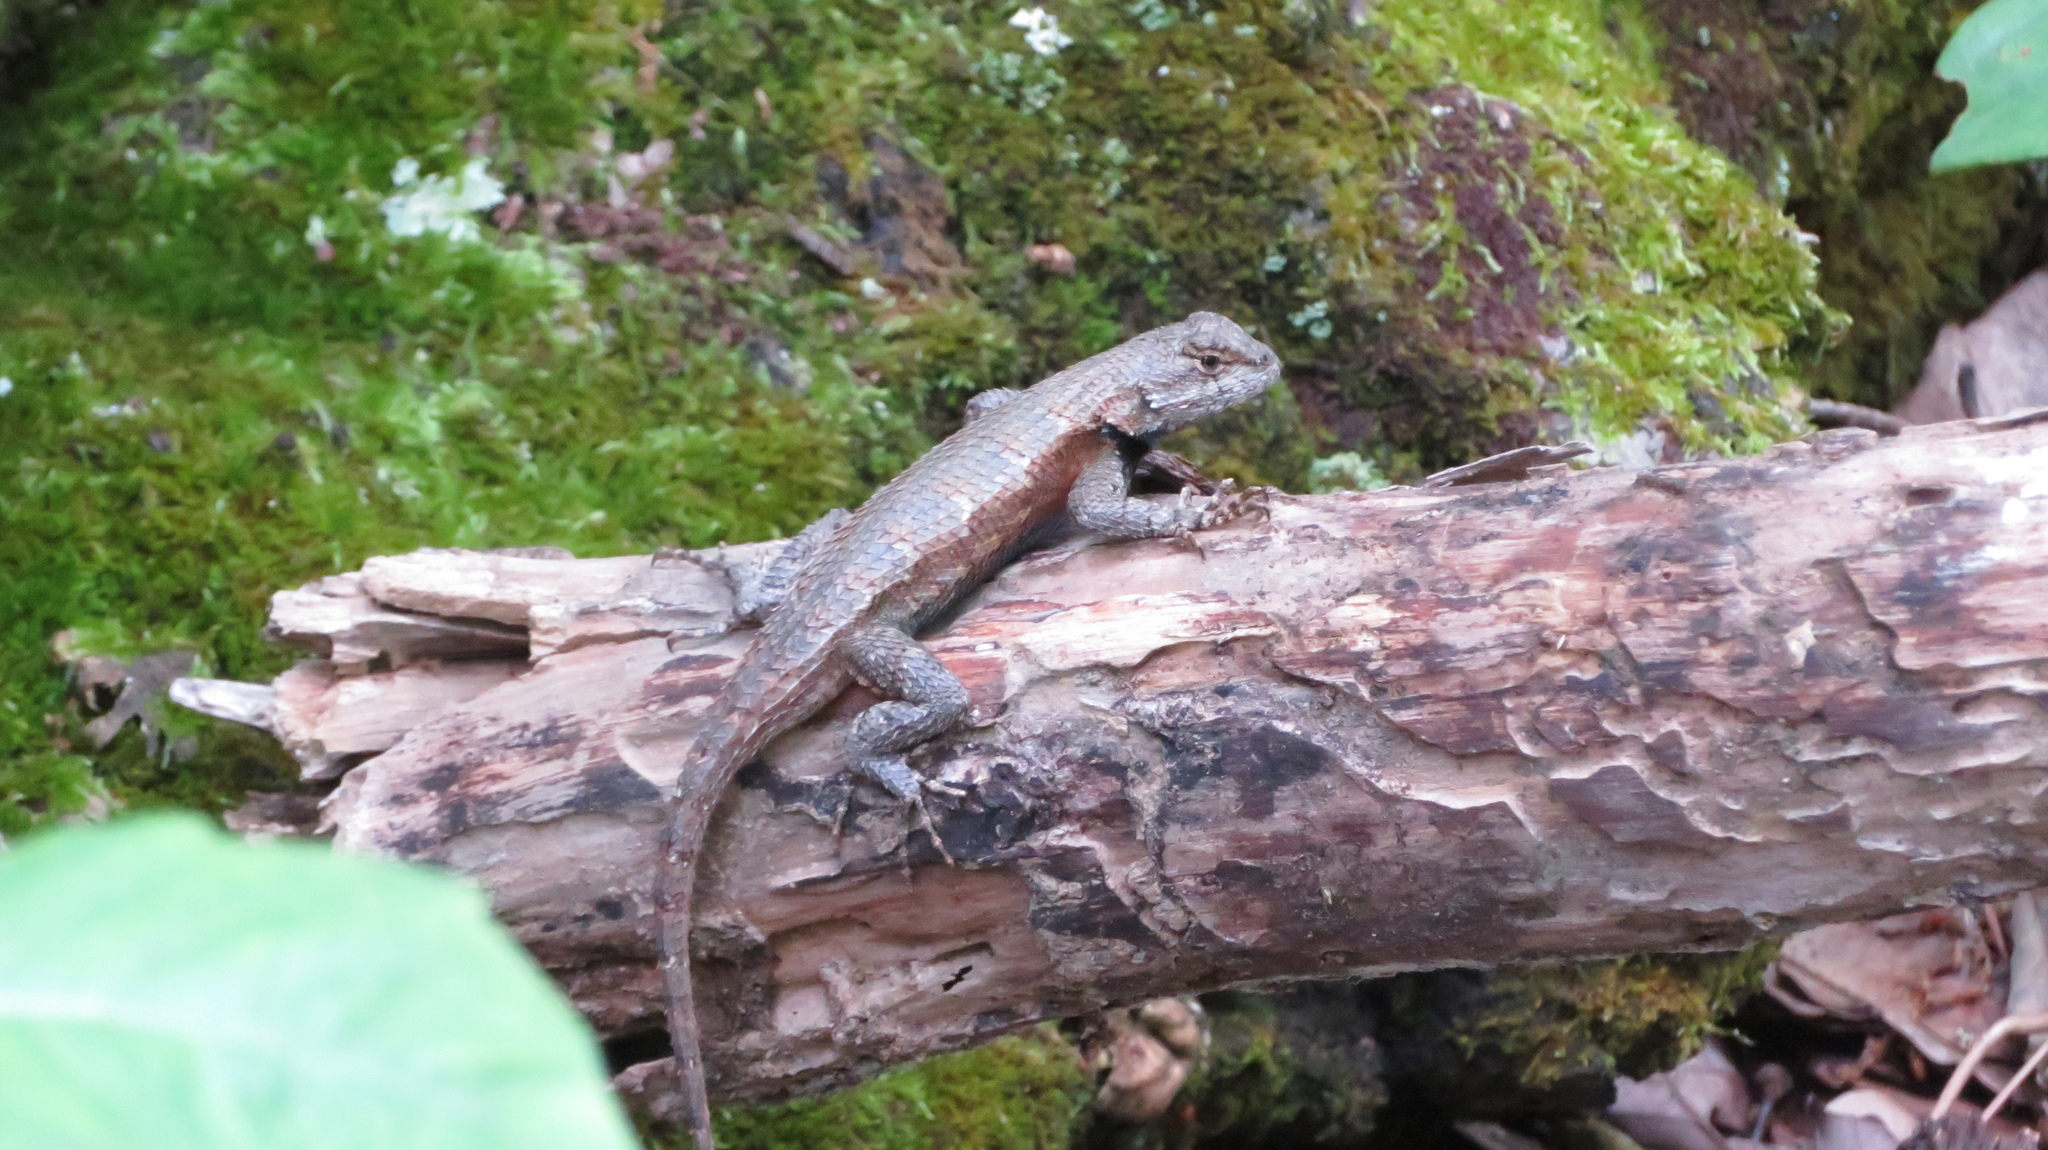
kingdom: Animalia
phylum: Chordata
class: Squamata
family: Phrynosomatidae
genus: Sceloporus
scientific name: Sceloporus undulatus
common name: Eastern fence lizard
